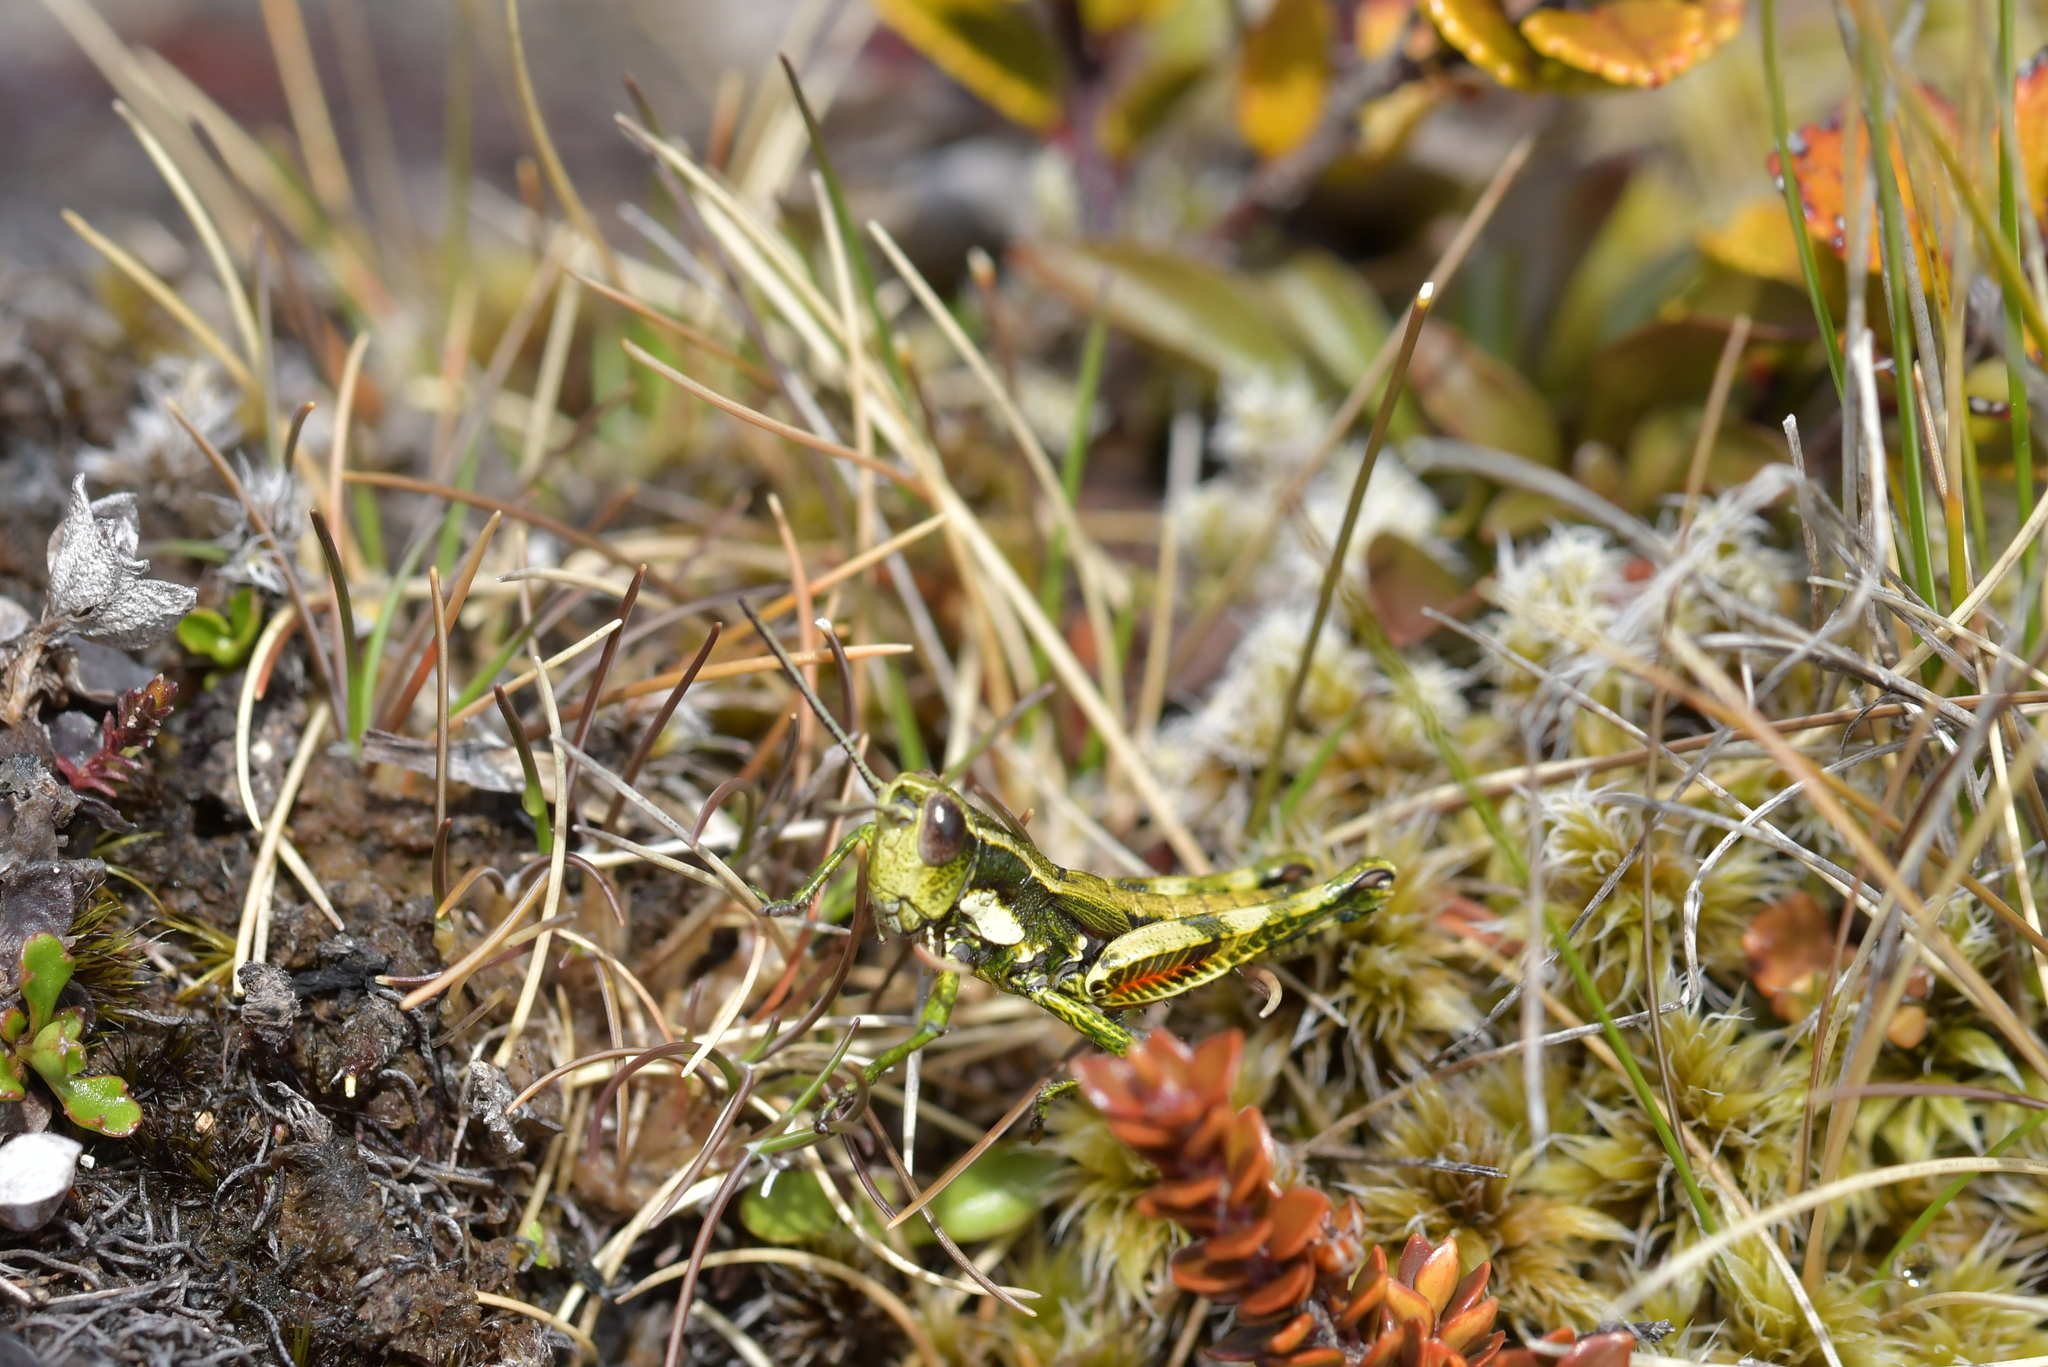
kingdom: Animalia
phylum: Arthropoda
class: Insecta
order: Orthoptera
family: Acrididae
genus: Sigaus
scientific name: Sigaus piliferus
